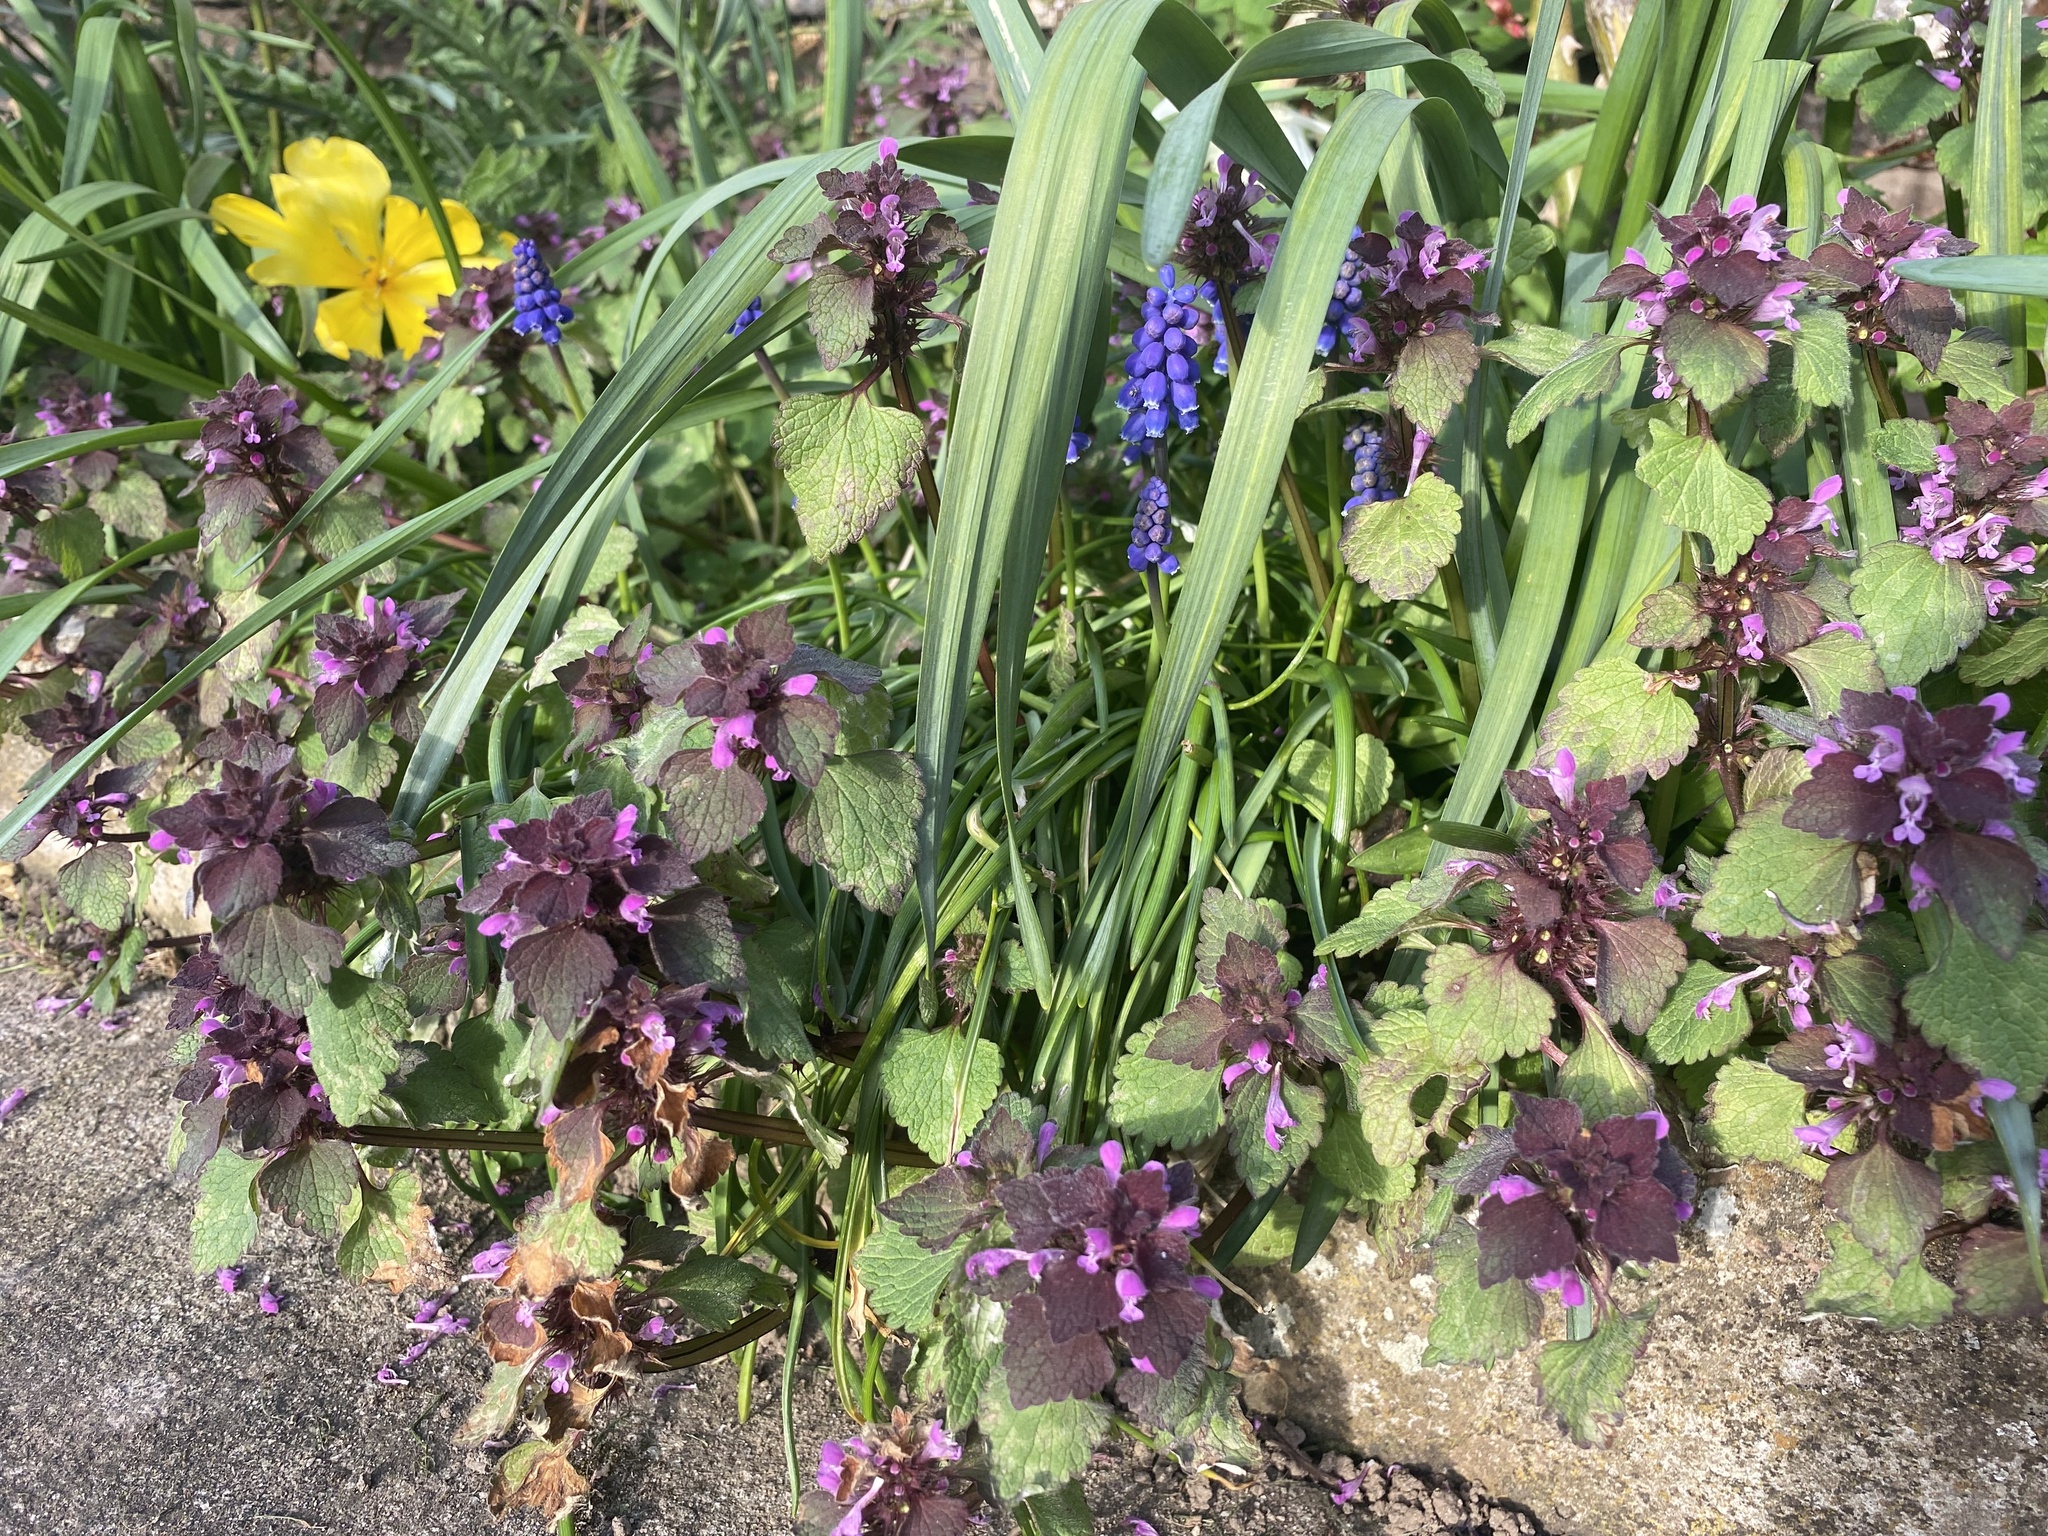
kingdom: Plantae
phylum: Tracheophyta
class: Magnoliopsida
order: Lamiales
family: Lamiaceae
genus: Lamium
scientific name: Lamium purpureum
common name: Red dead-nettle
